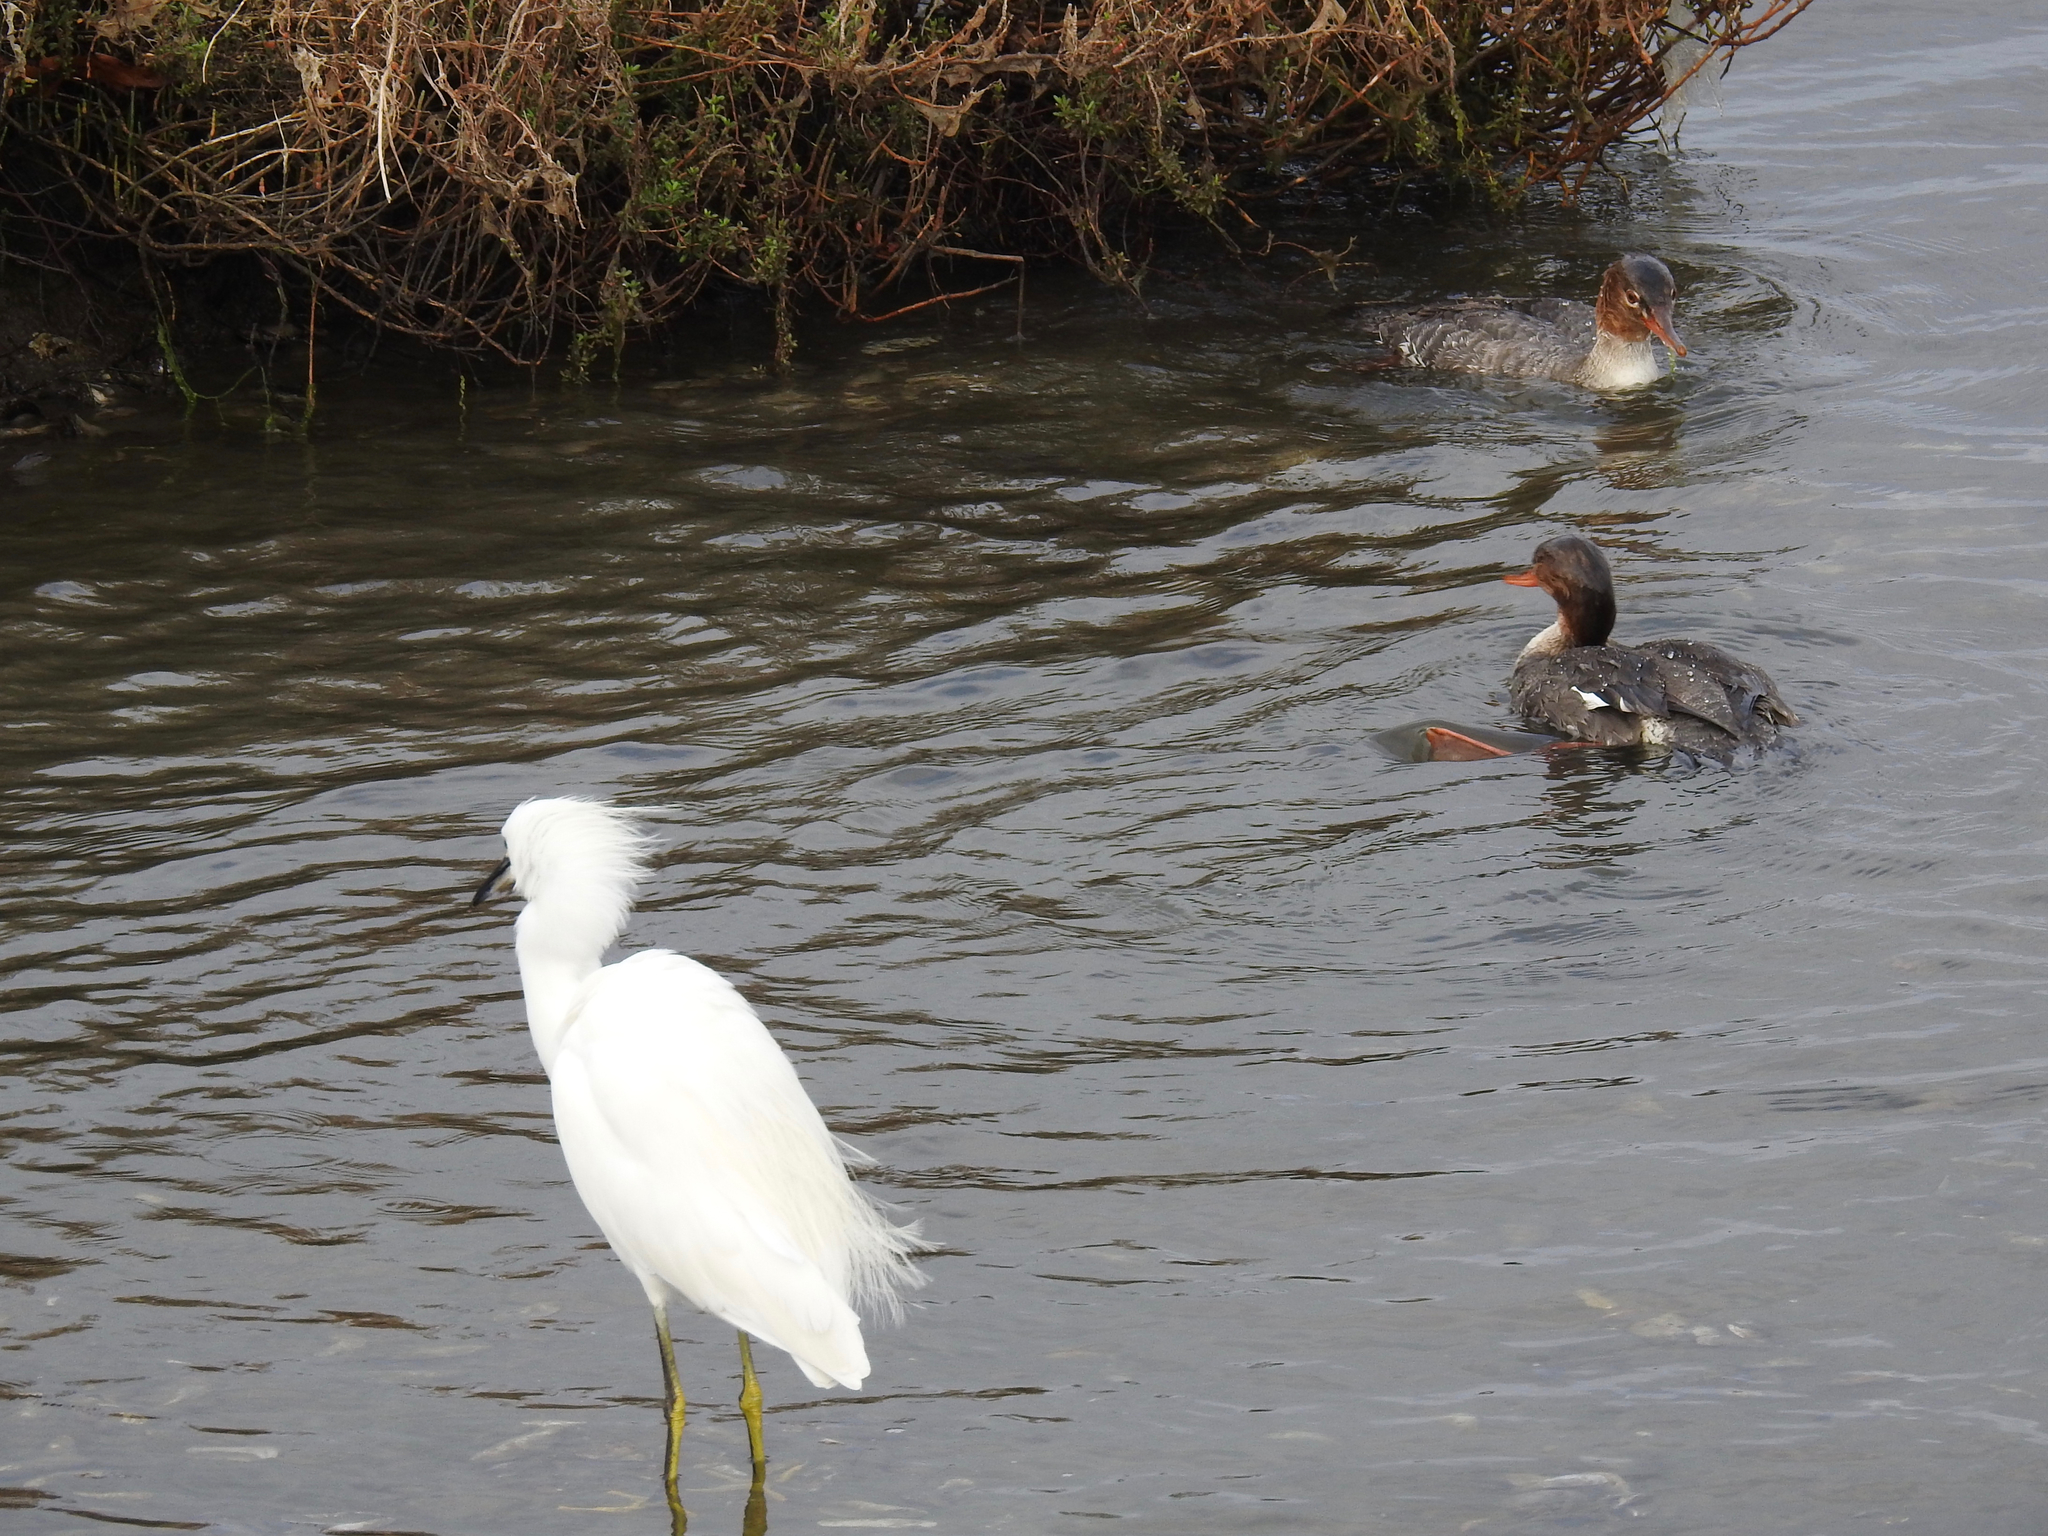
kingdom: Animalia
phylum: Chordata
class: Aves
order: Anseriformes
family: Anatidae
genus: Mergus
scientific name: Mergus serrator
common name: Red-breasted merganser
